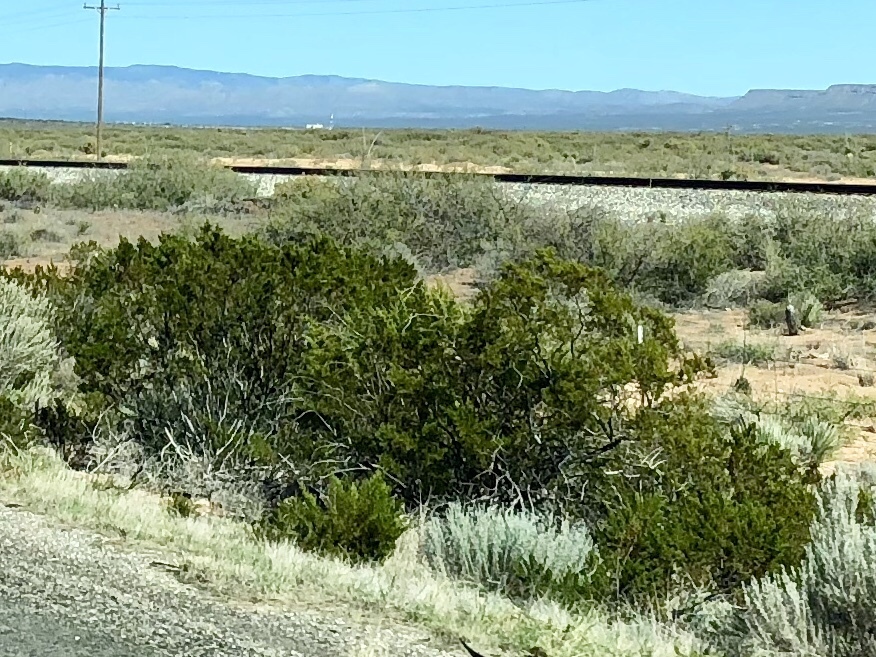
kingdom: Plantae
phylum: Tracheophyta
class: Magnoliopsida
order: Zygophyllales
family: Zygophyllaceae
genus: Larrea
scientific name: Larrea tridentata
